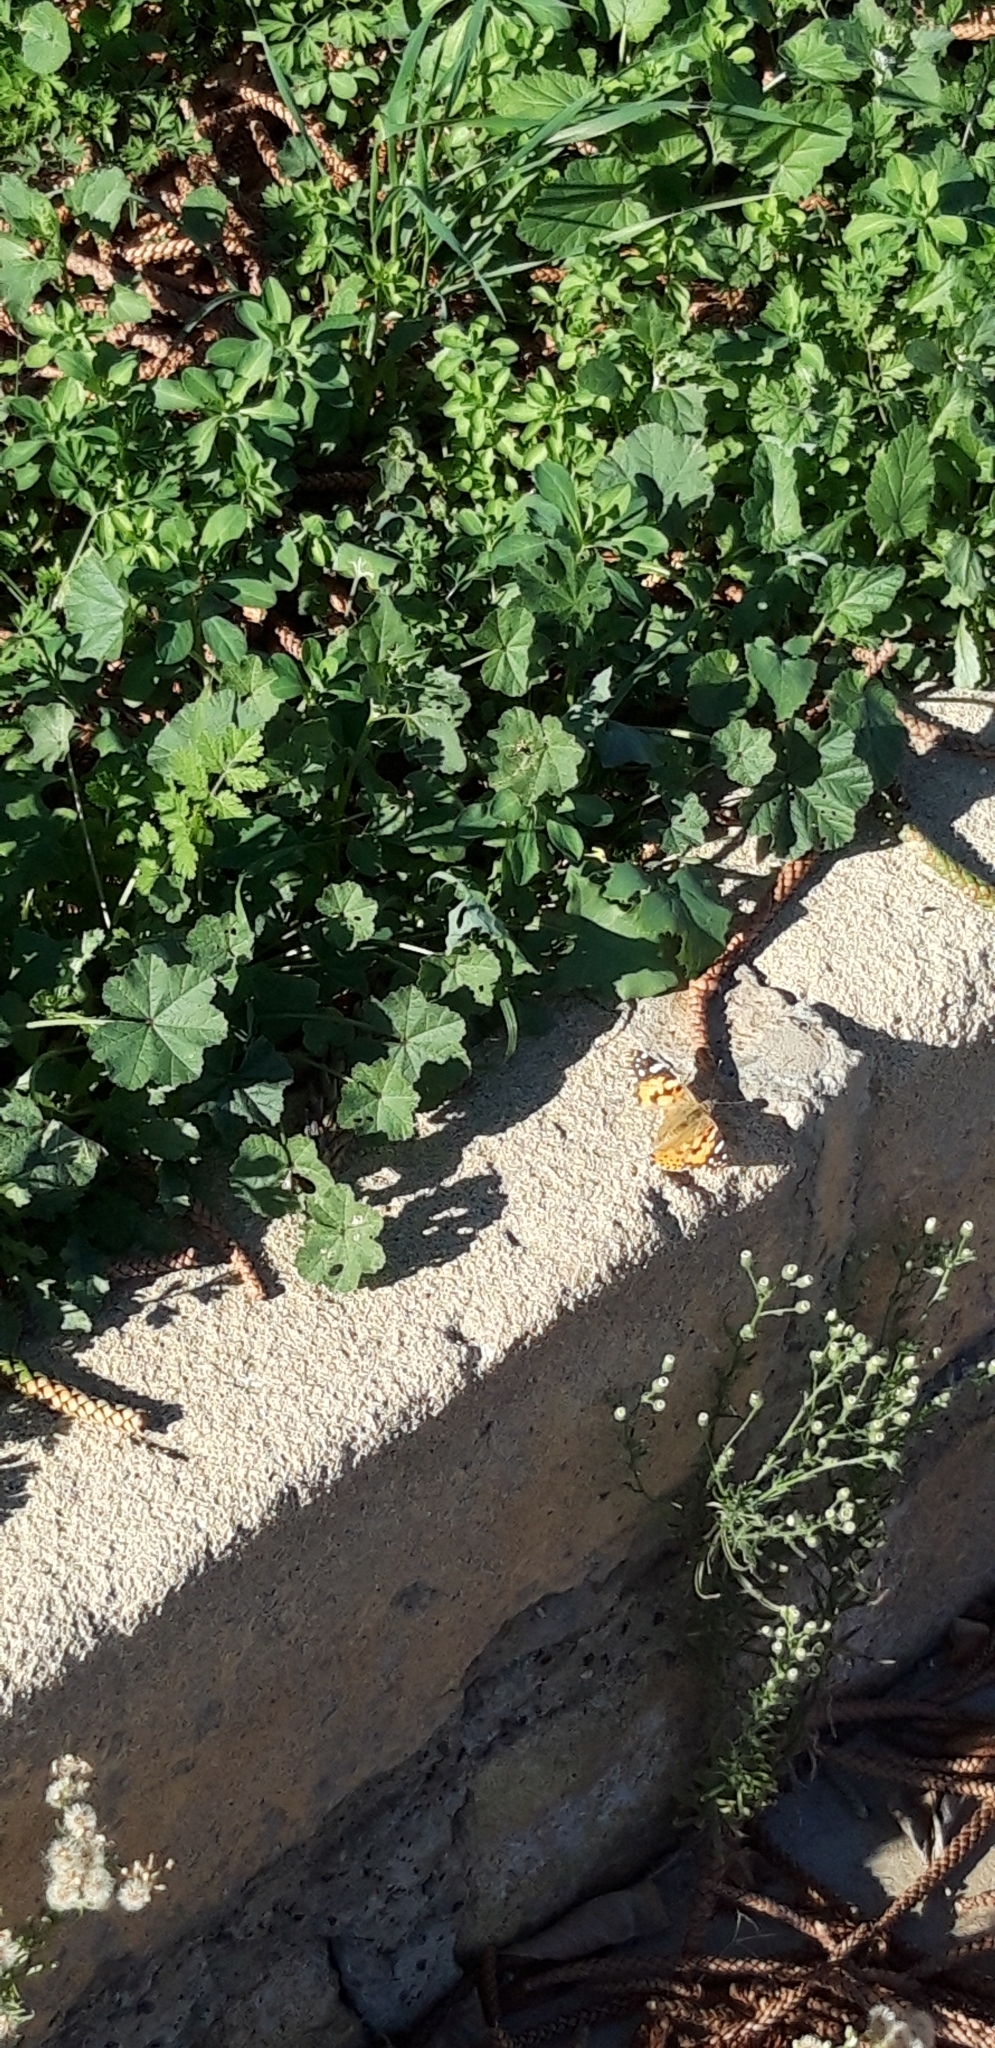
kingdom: Animalia
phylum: Arthropoda
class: Insecta
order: Lepidoptera
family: Nymphalidae
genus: Vanessa
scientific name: Vanessa cardui
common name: Painted lady
